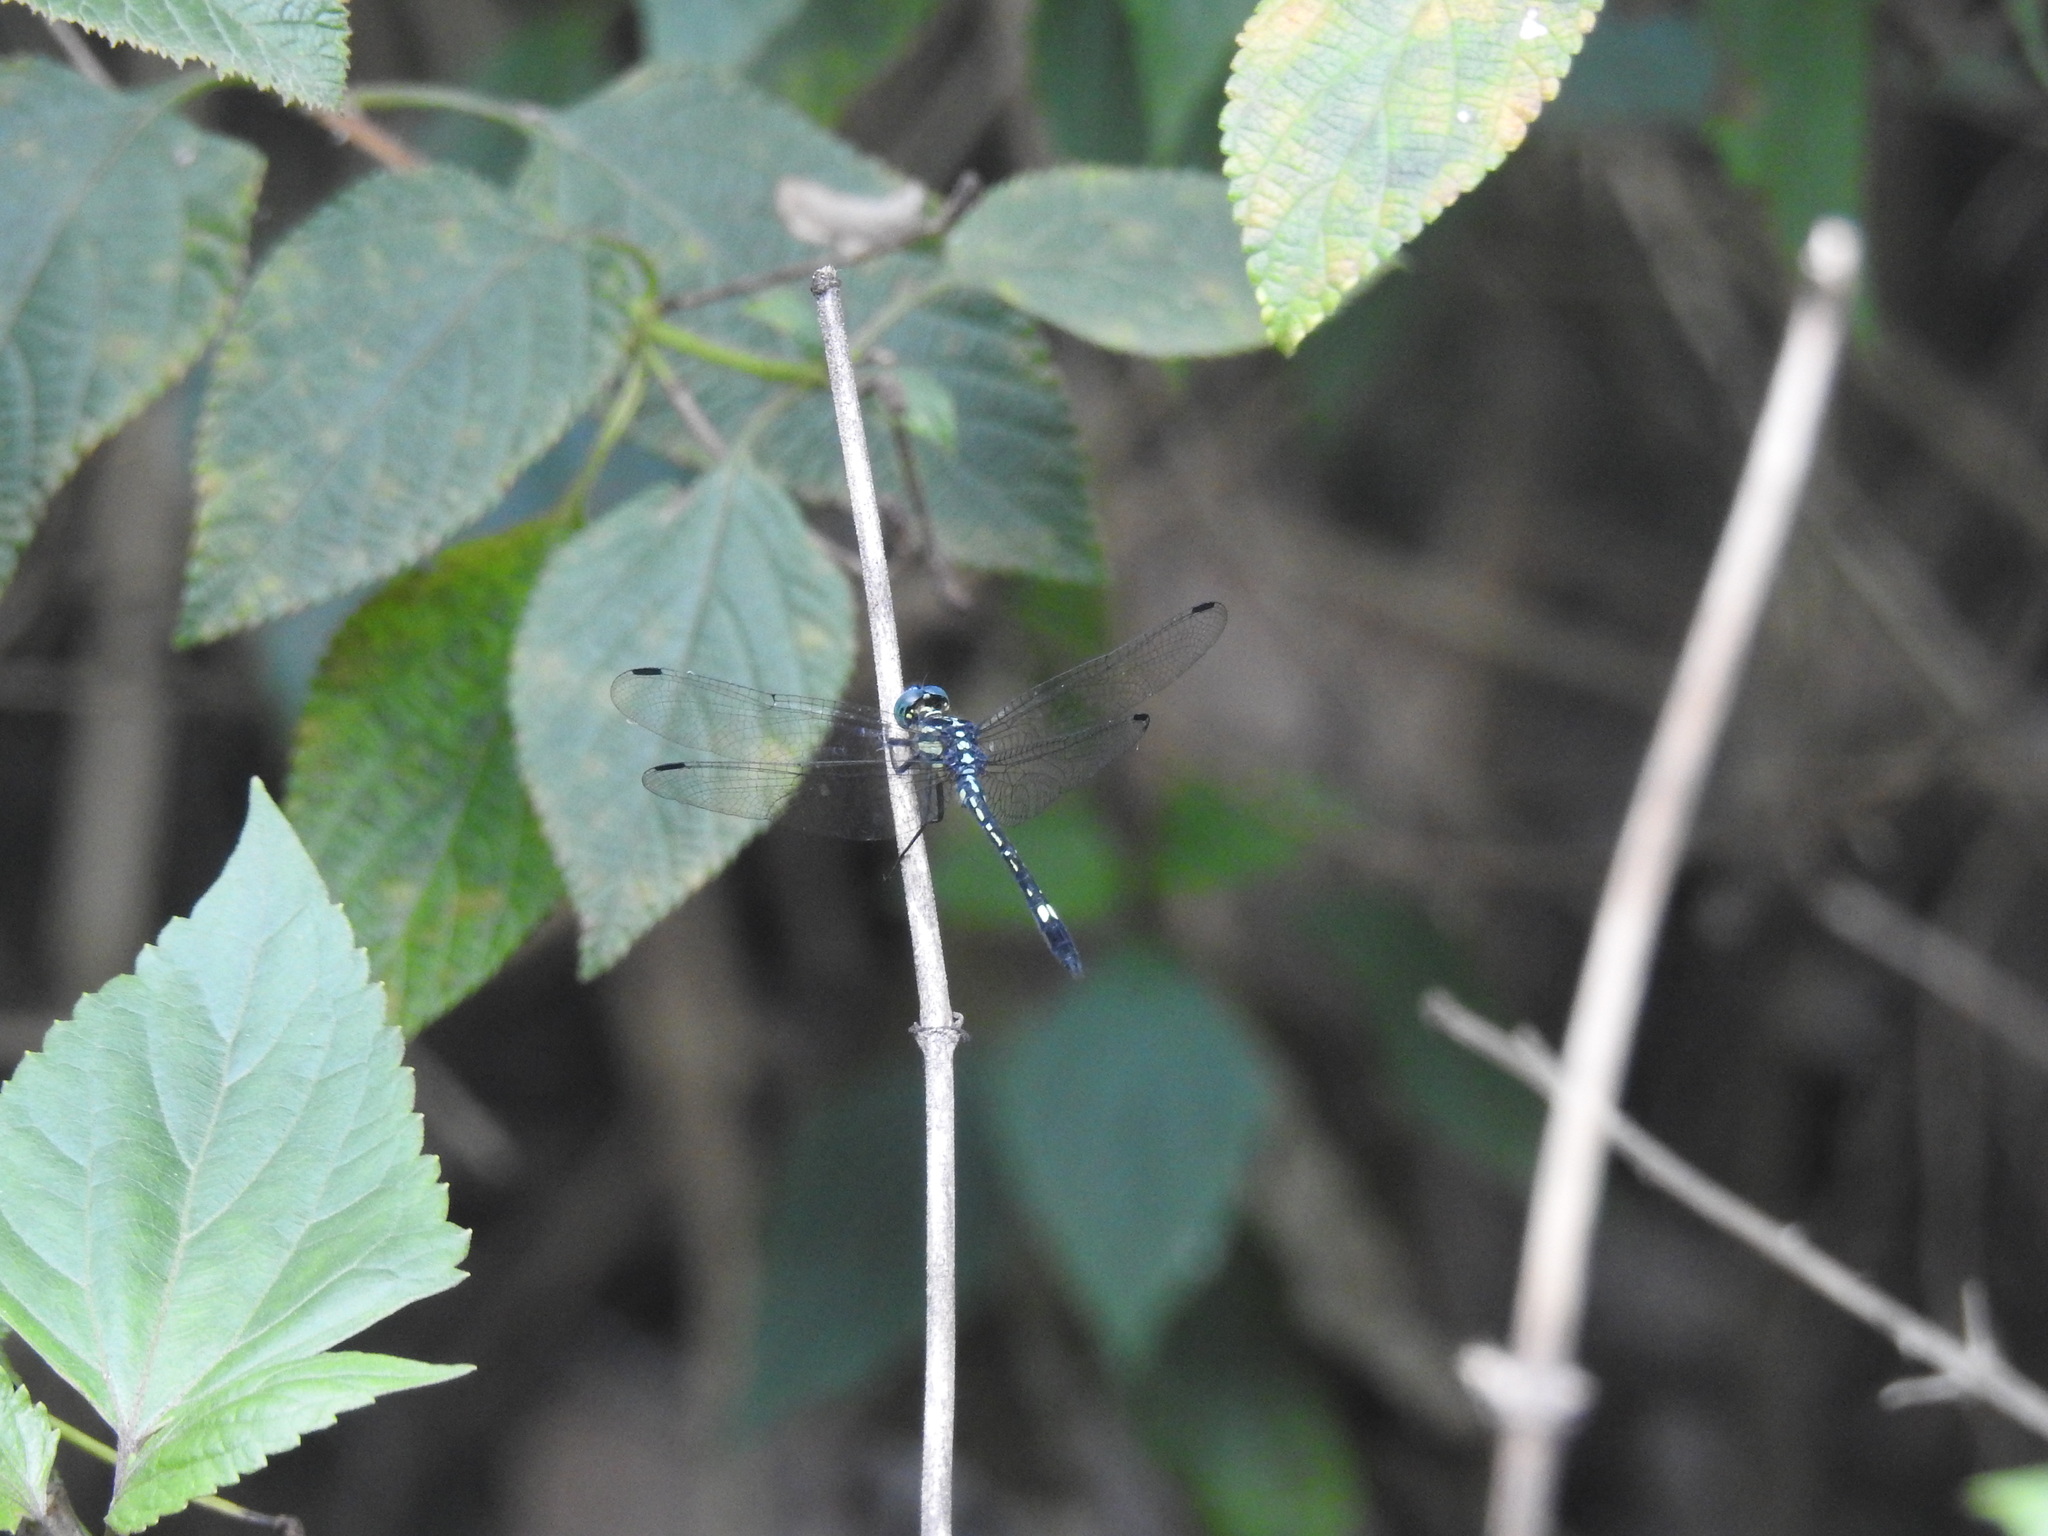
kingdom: Animalia
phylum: Arthropoda
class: Insecta
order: Odonata
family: Libellulidae
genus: Hylaeothemis
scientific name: Hylaeothemis apicalis
